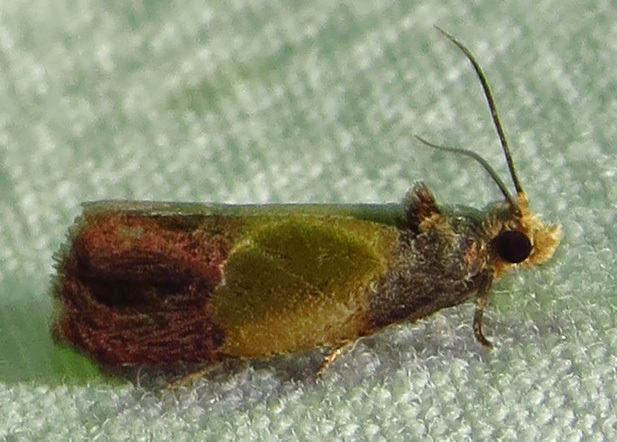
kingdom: Animalia
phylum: Arthropoda
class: Insecta
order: Lepidoptera
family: Tortricidae
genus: Eumarozia
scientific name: Eumarozia malachitana
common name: Sculptured moth
